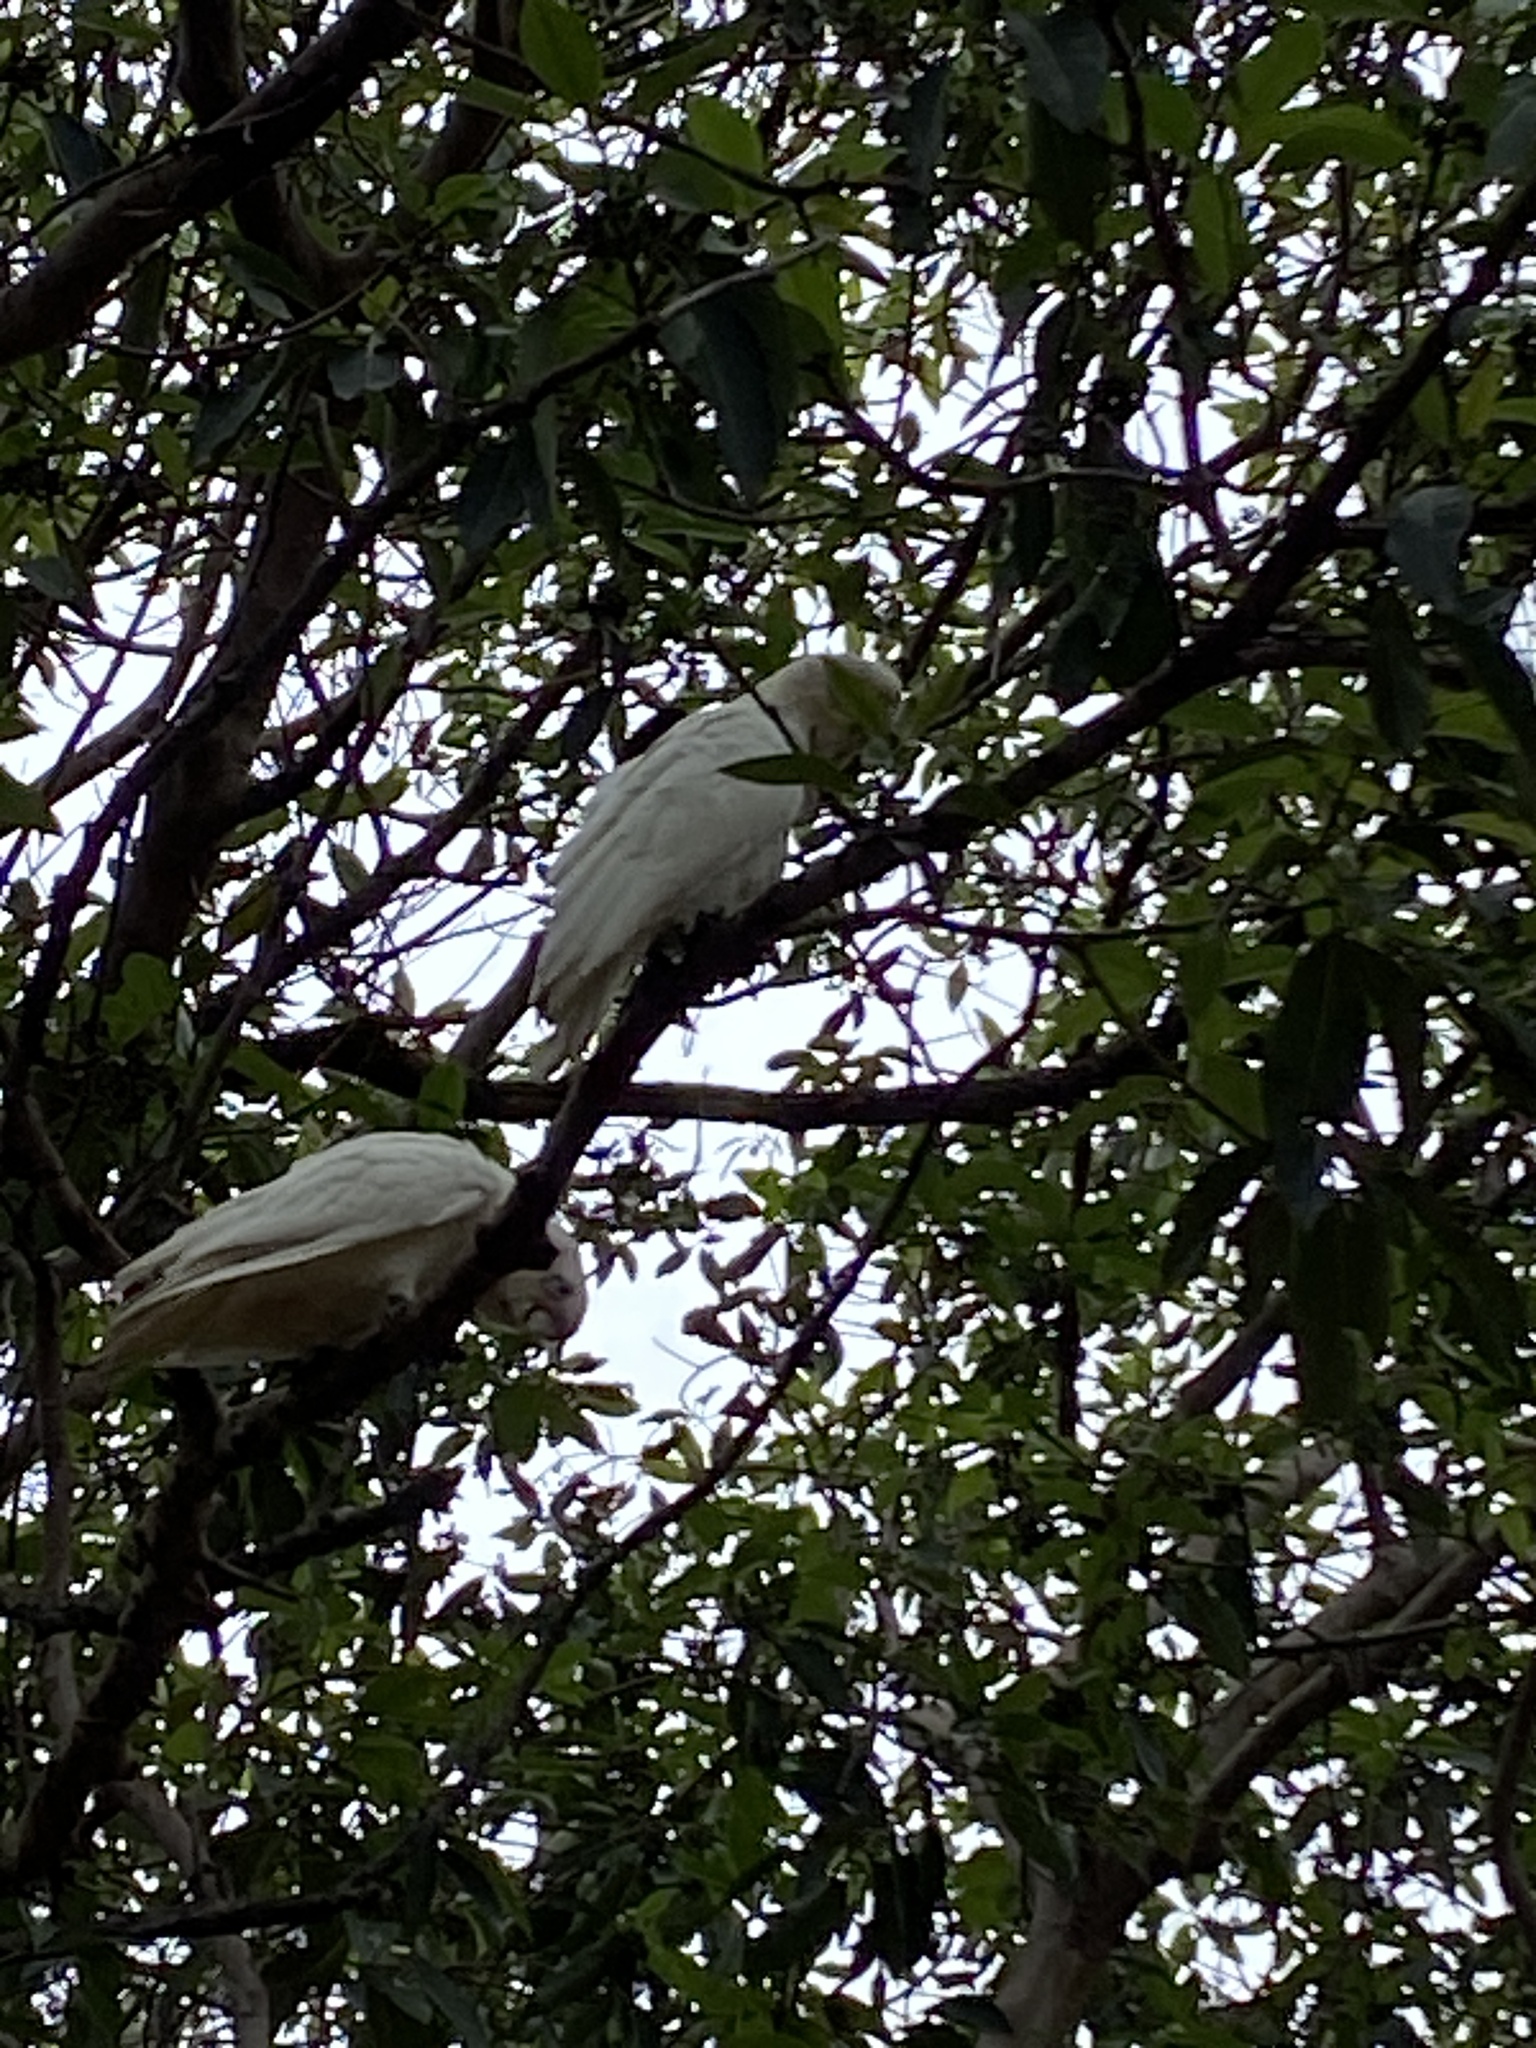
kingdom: Animalia
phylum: Chordata
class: Aves
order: Psittaciformes
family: Psittacidae
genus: Cacatua
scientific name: Cacatua sanguinea
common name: Little corella
